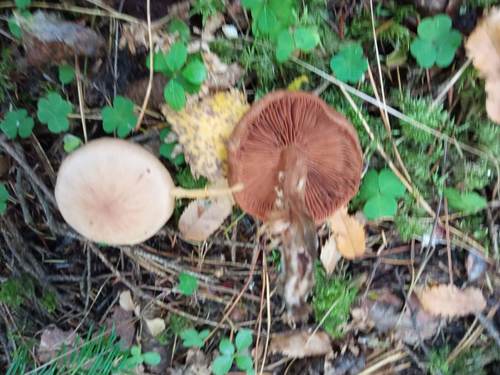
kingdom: Fungi
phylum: Basidiomycota
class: Agaricomycetes
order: Agaricales
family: Cortinariaceae
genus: Cortinarius
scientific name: Cortinarius
